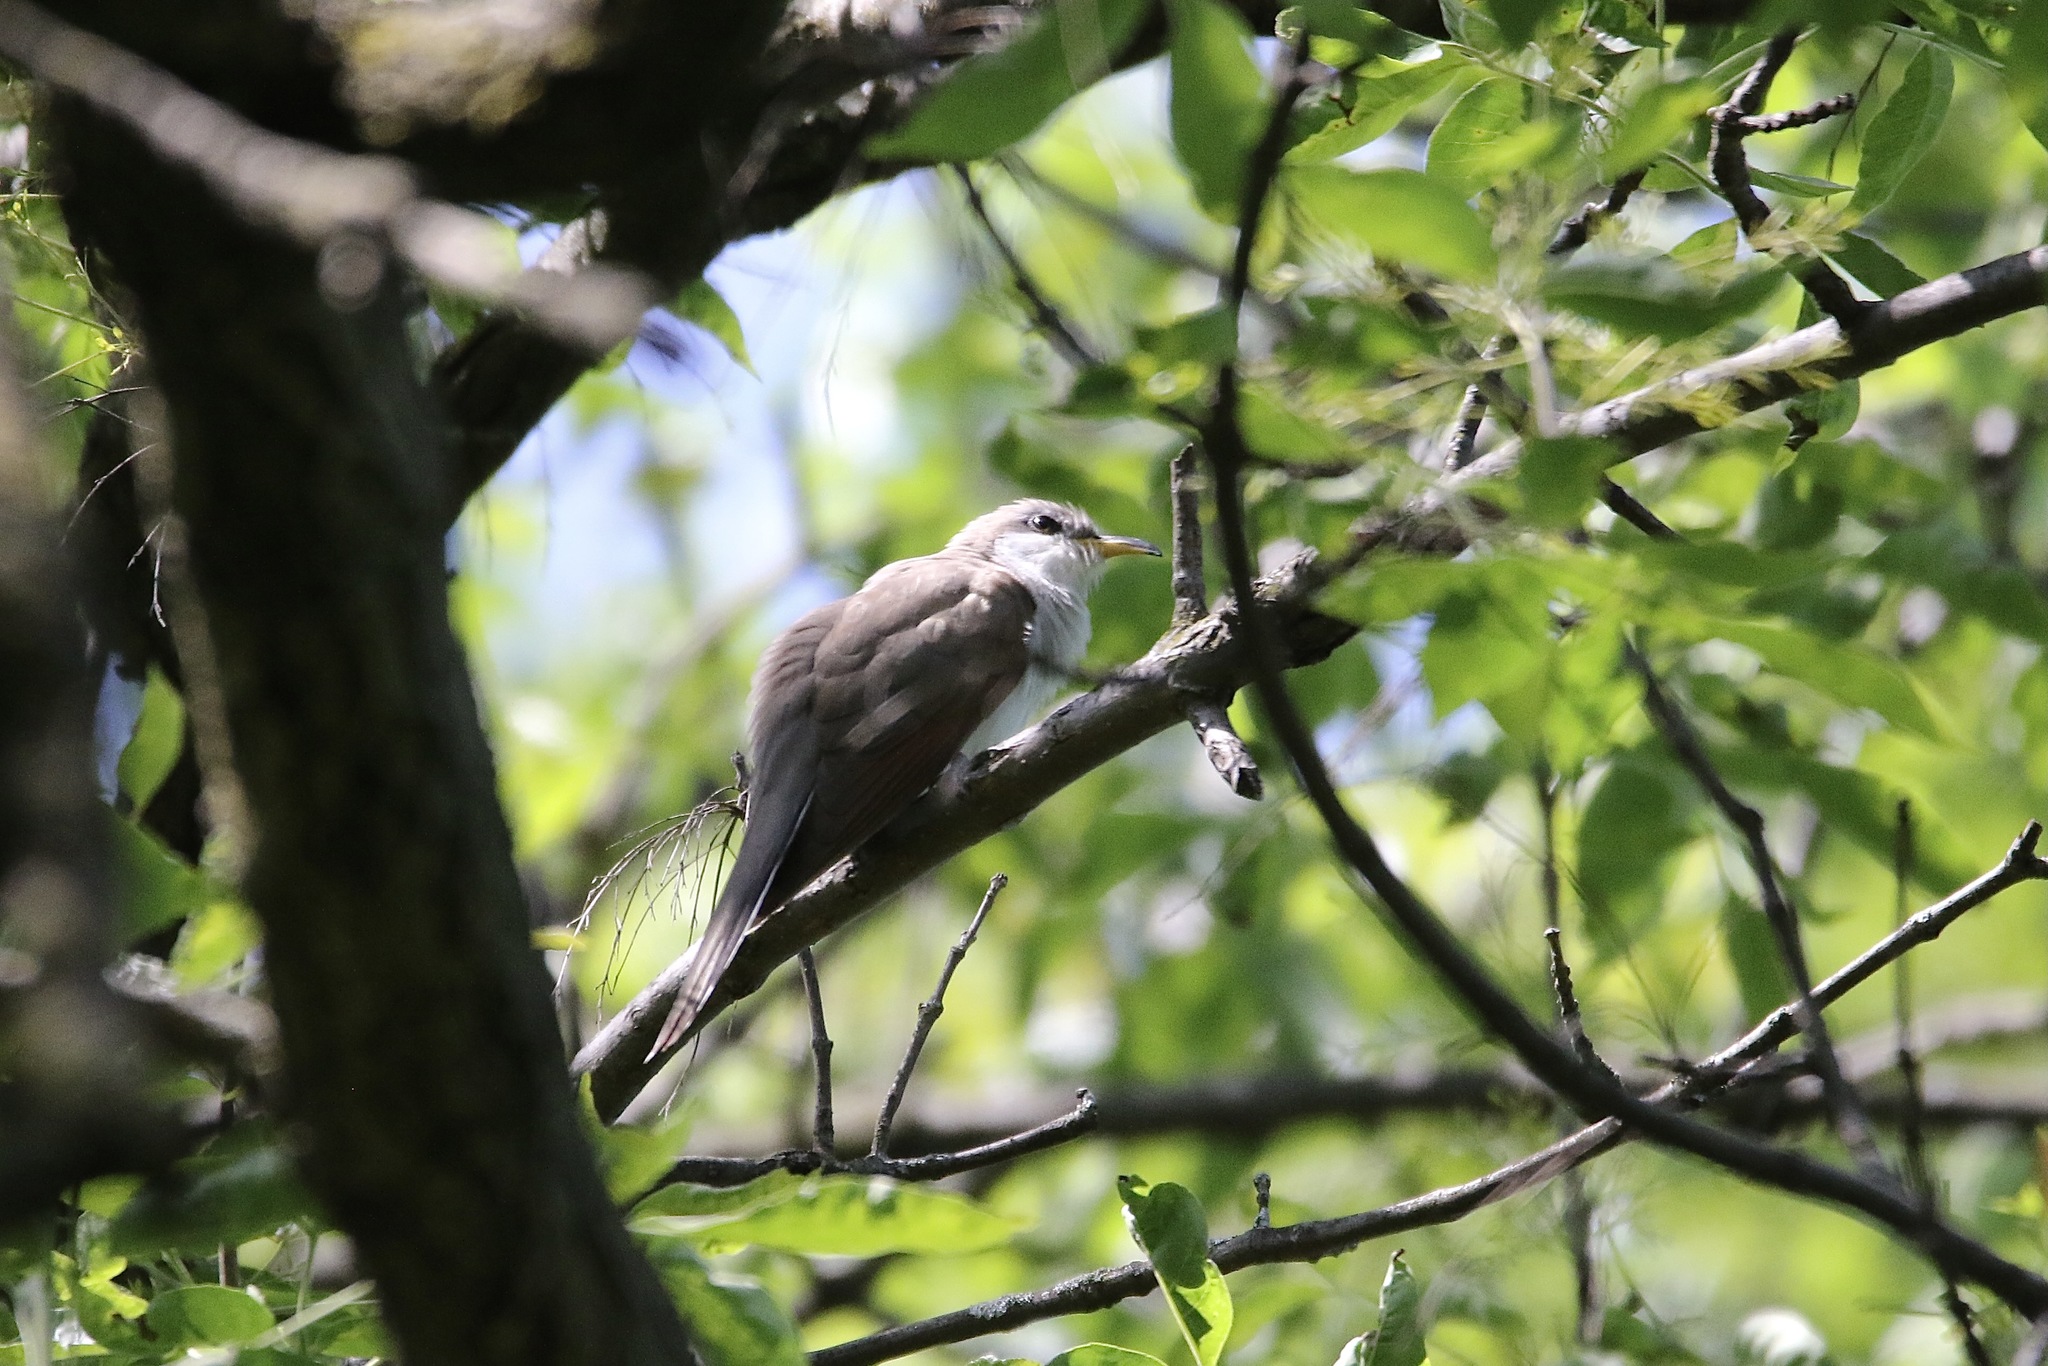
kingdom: Animalia
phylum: Chordata
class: Aves
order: Cuculiformes
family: Cuculidae
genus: Coccyzus
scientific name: Coccyzus americanus
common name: Yellow-billed cuckoo
